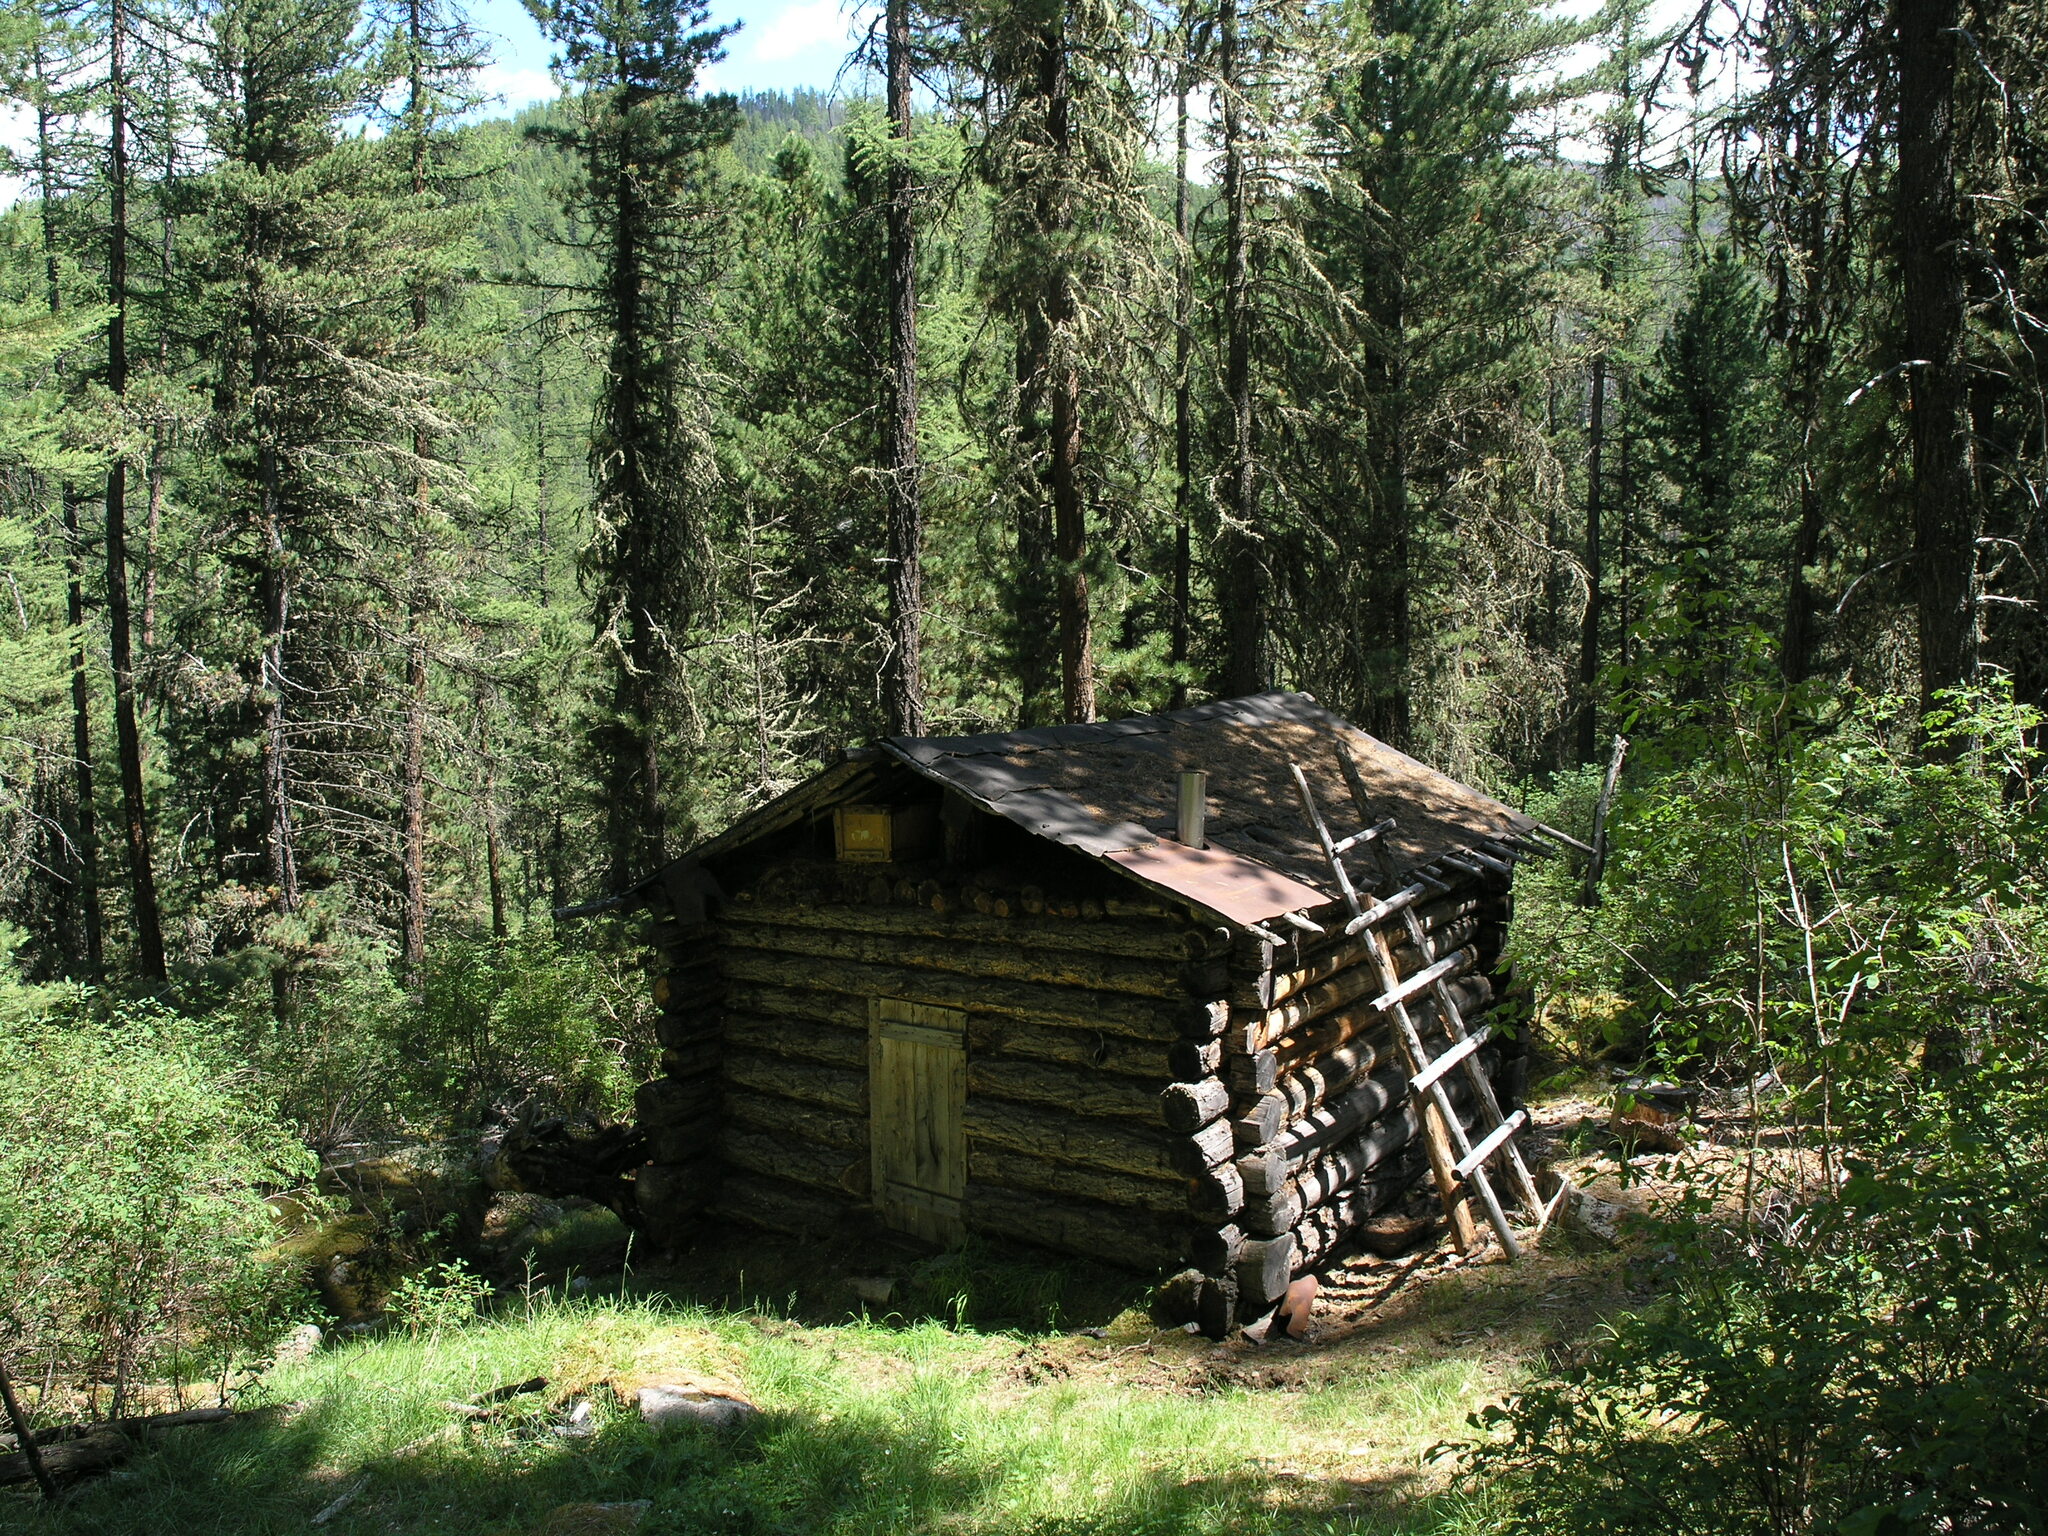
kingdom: Plantae
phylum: Tracheophyta
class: Pinopsida
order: Pinales
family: Pinaceae
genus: Pinus
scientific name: Pinus sibirica
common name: Siberian pine
